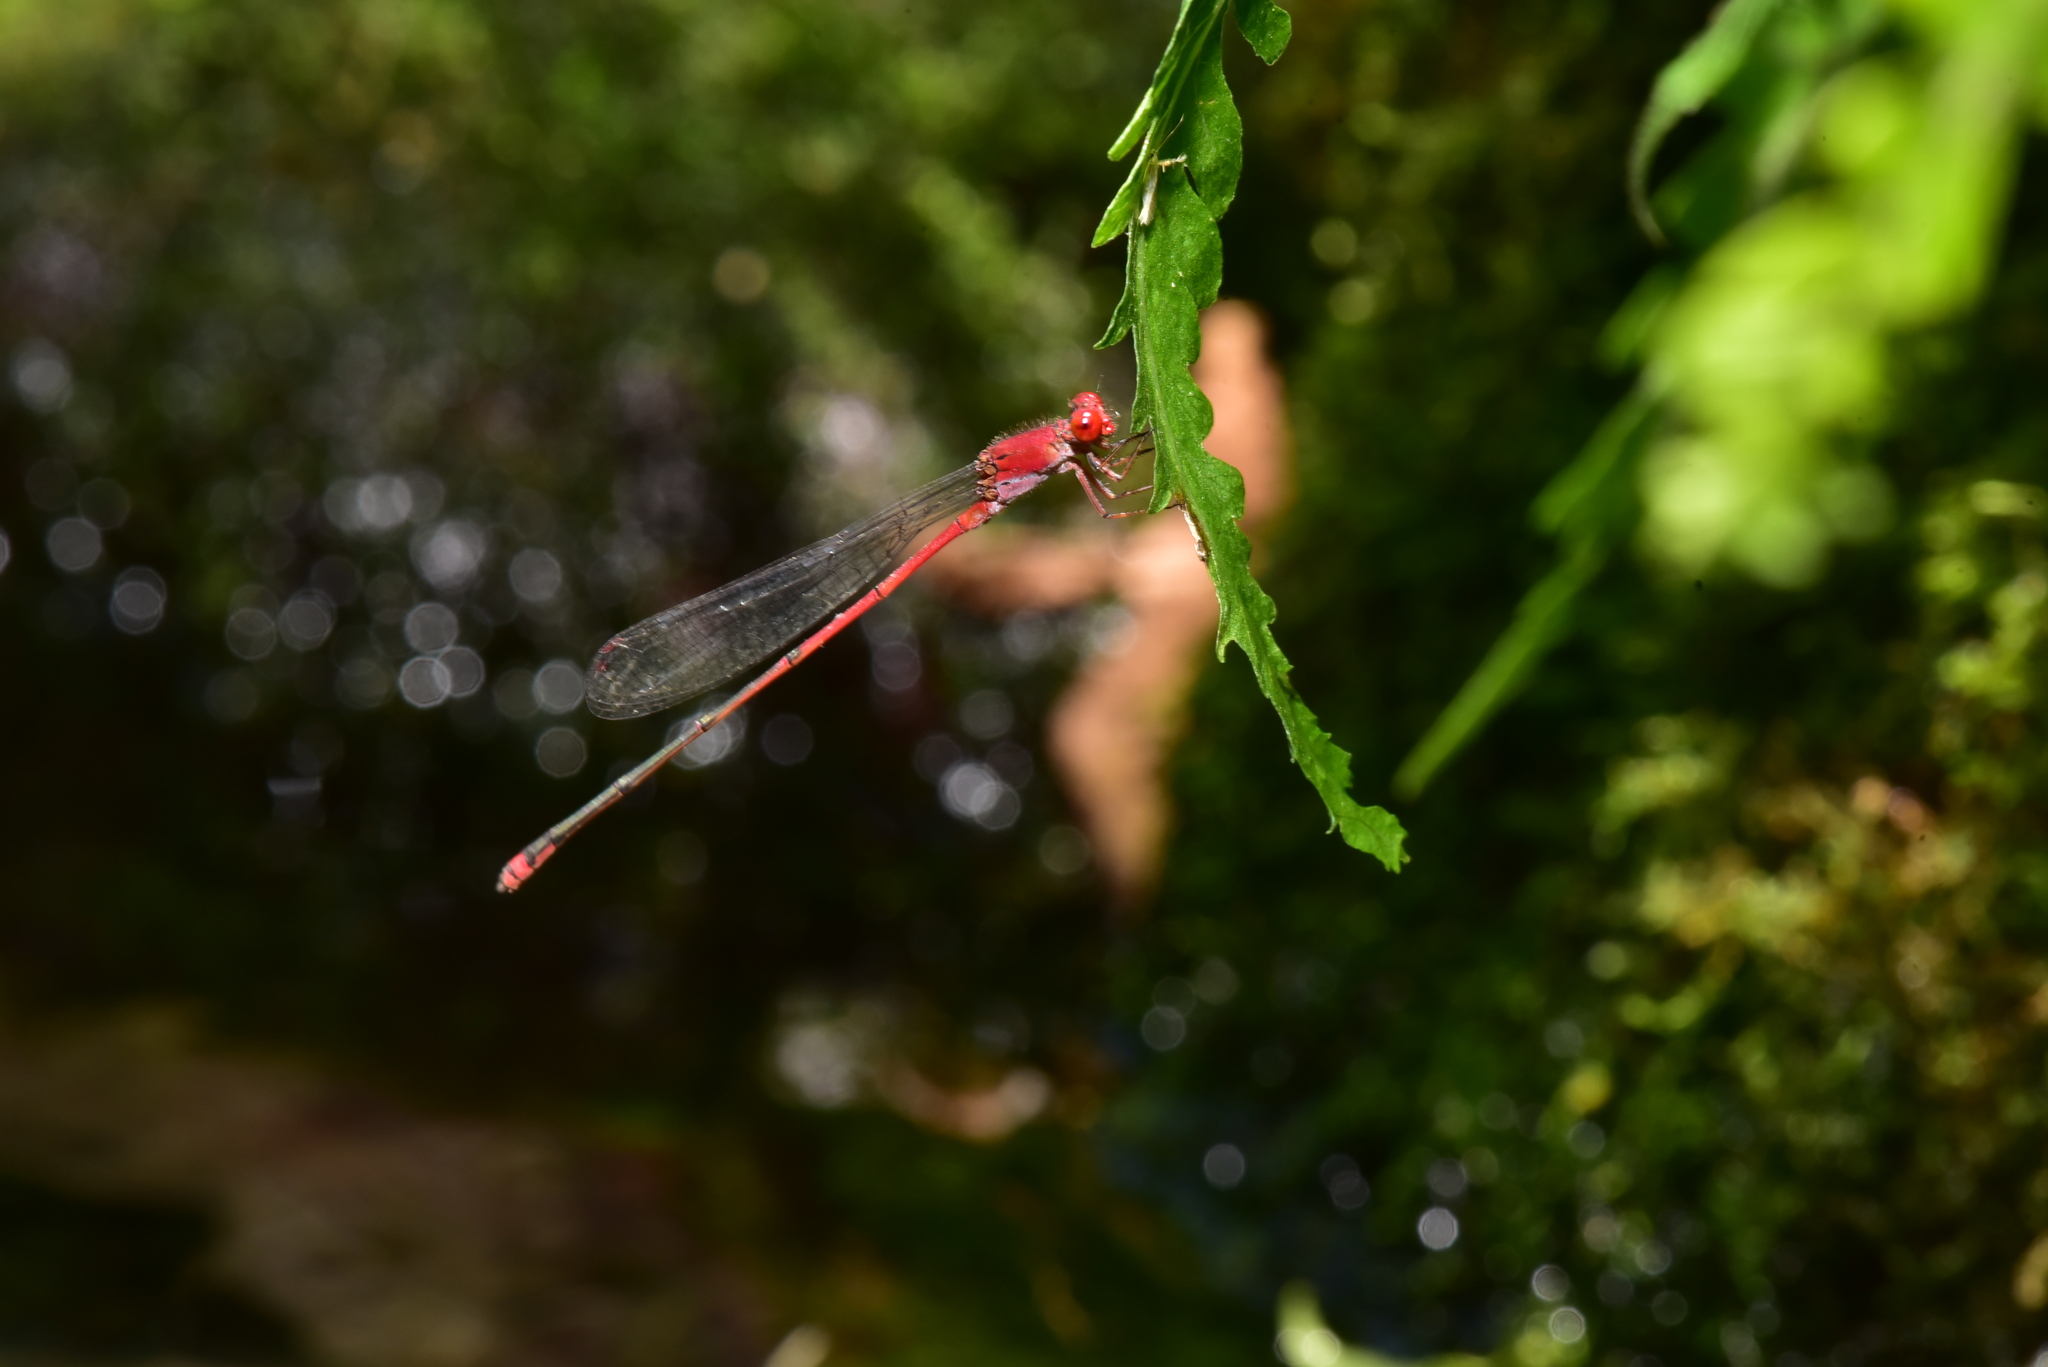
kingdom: Animalia
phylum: Arthropoda
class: Insecta
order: Odonata
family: Coenagrionidae
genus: Pseudagrion
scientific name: Pseudagrion pilidorsum
